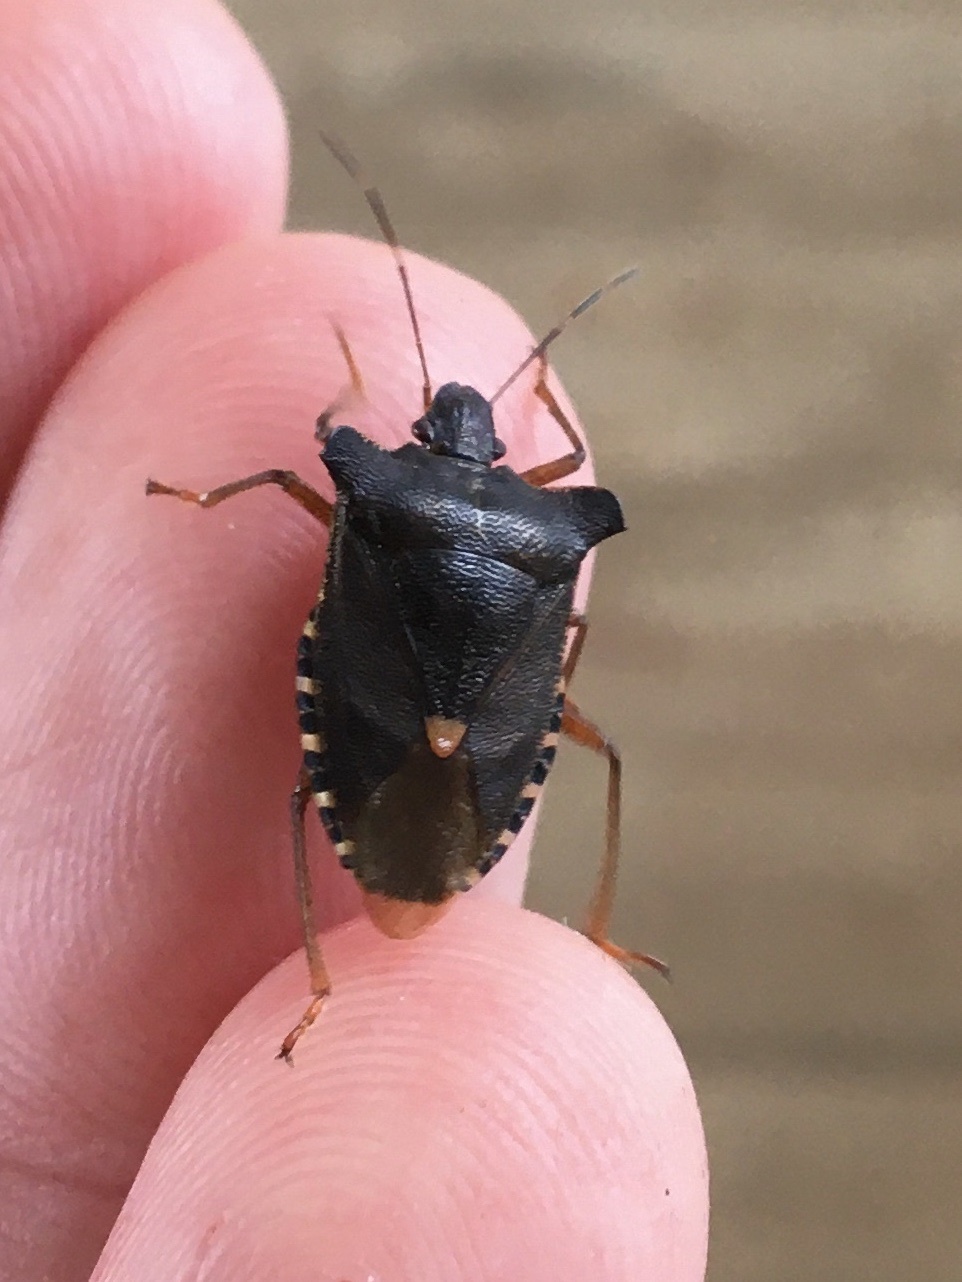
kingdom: Animalia
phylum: Arthropoda
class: Insecta
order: Hemiptera
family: Pentatomidae
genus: Pentatoma
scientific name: Pentatoma rufipes
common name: Forest bug
